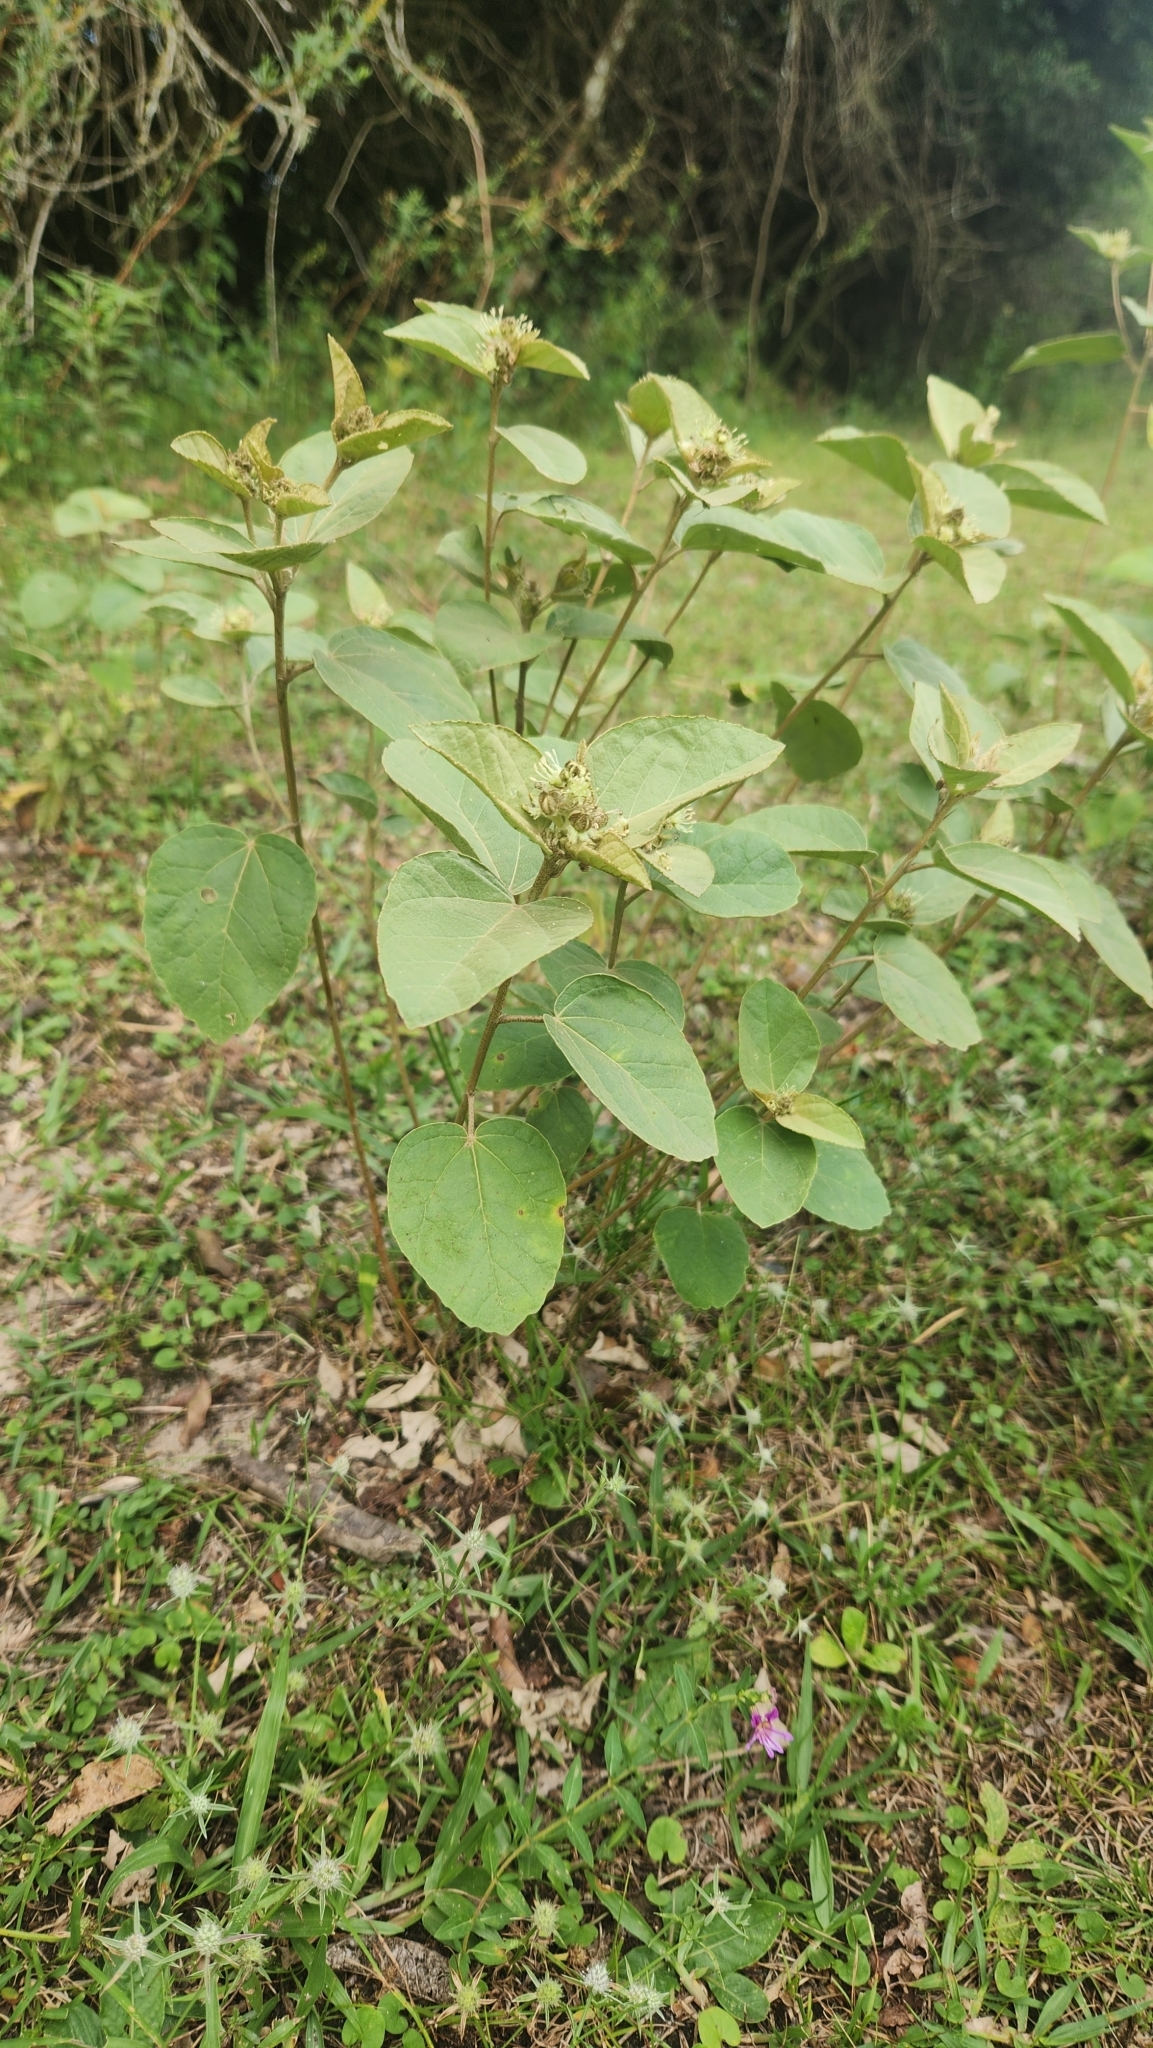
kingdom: Plantae
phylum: Tracheophyta
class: Magnoliopsida
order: Malpighiales
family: Euphorbiaceae
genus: Croton
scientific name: Croton argenteus
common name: Silver july croton
